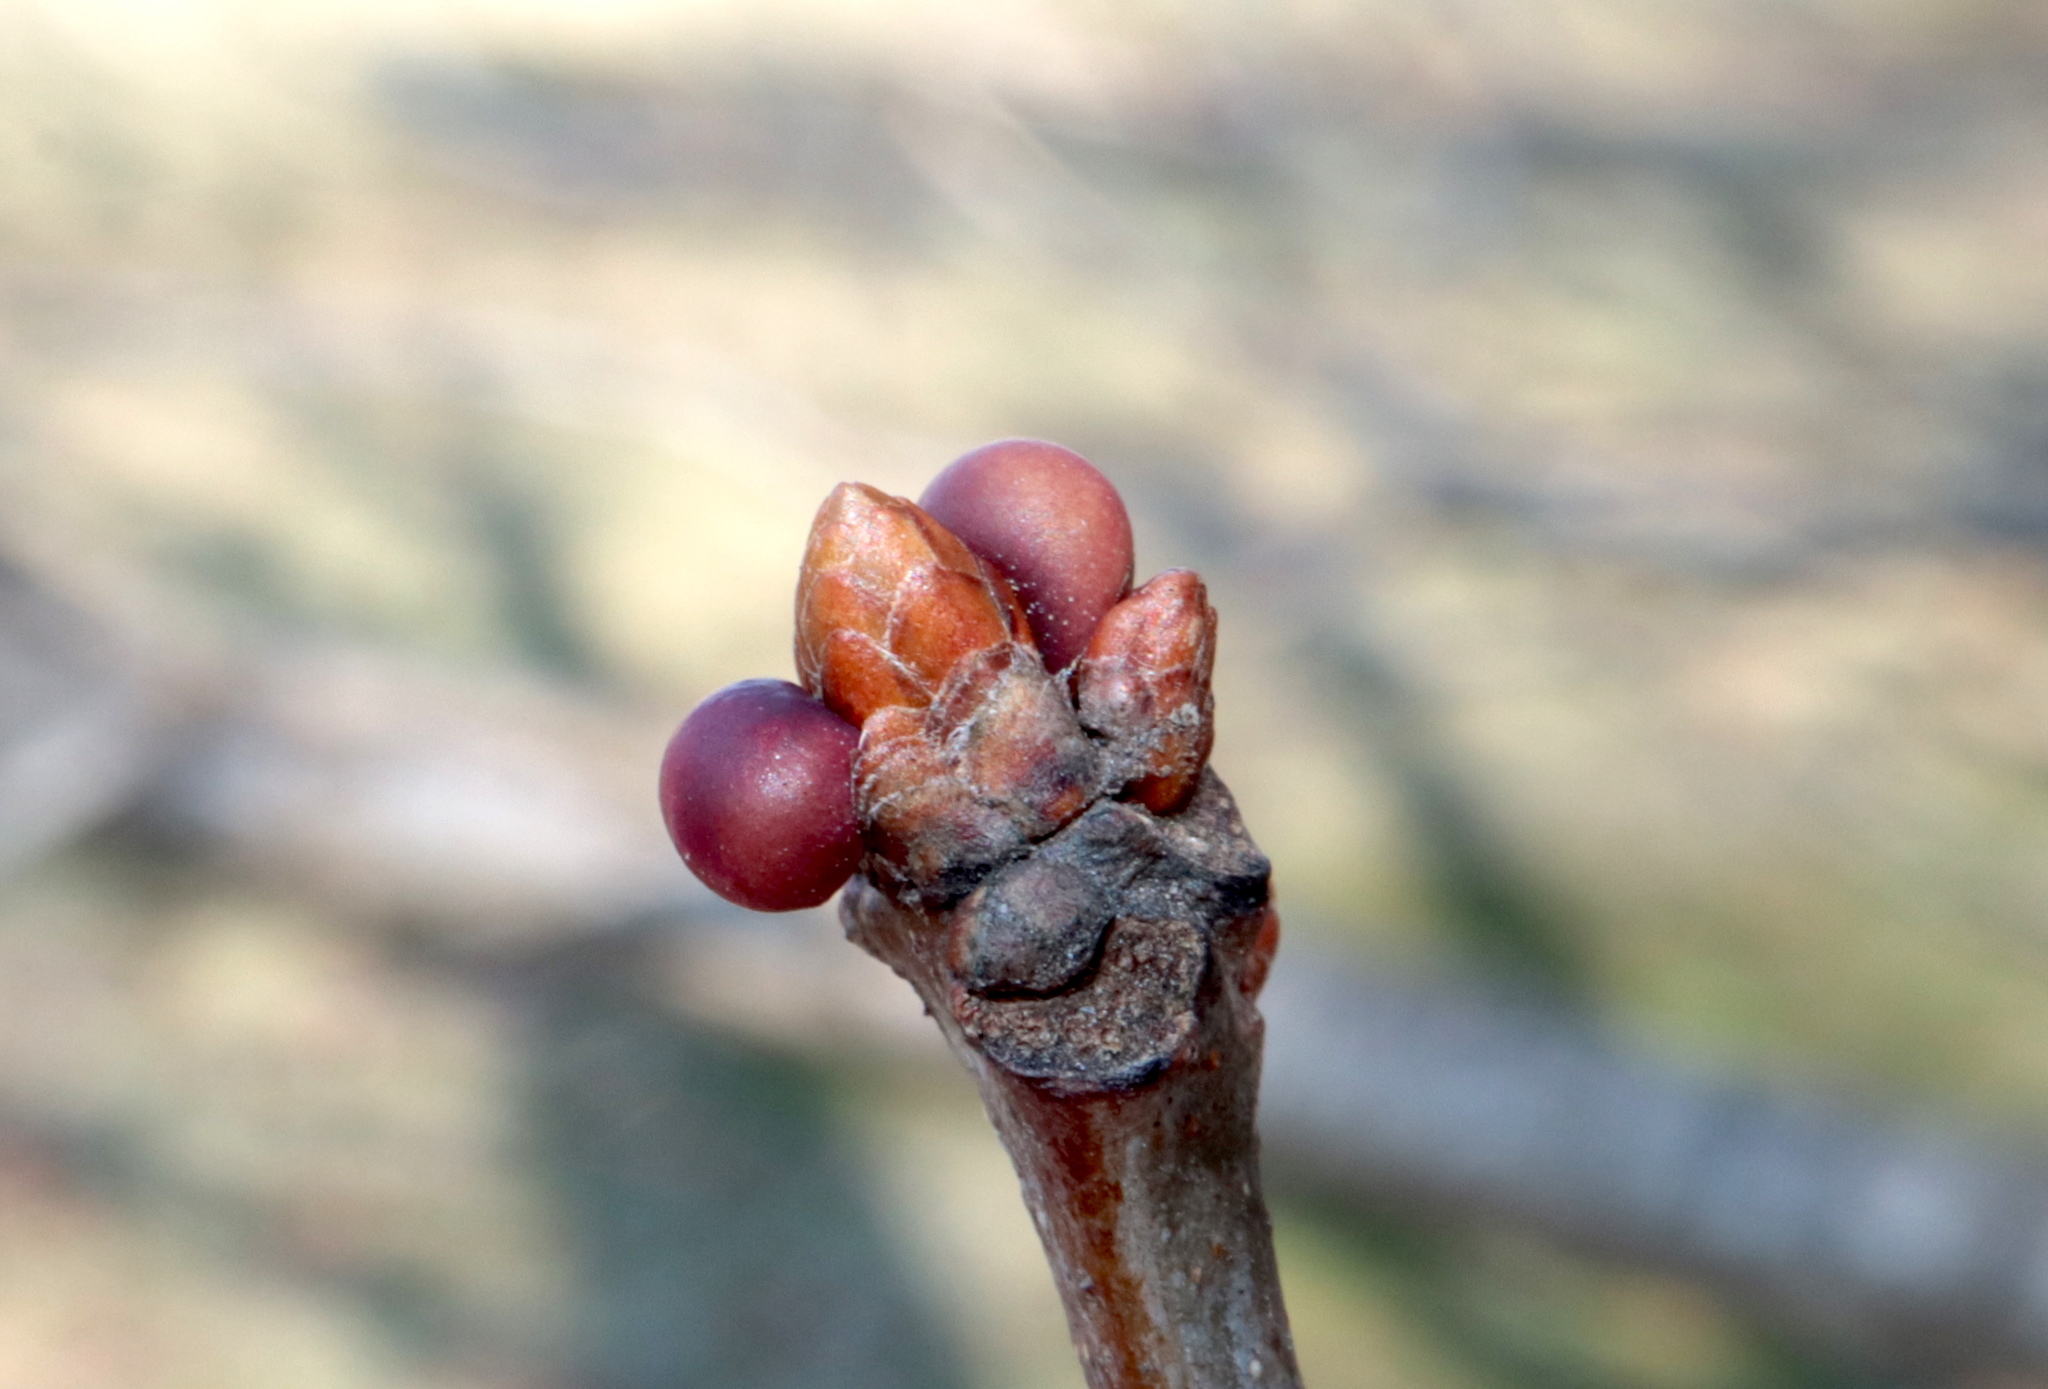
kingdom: Animalia
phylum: Arthropoda
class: Insecta
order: Hymenoptera
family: Cynipidae
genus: Neuroterus
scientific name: Neuroterus
